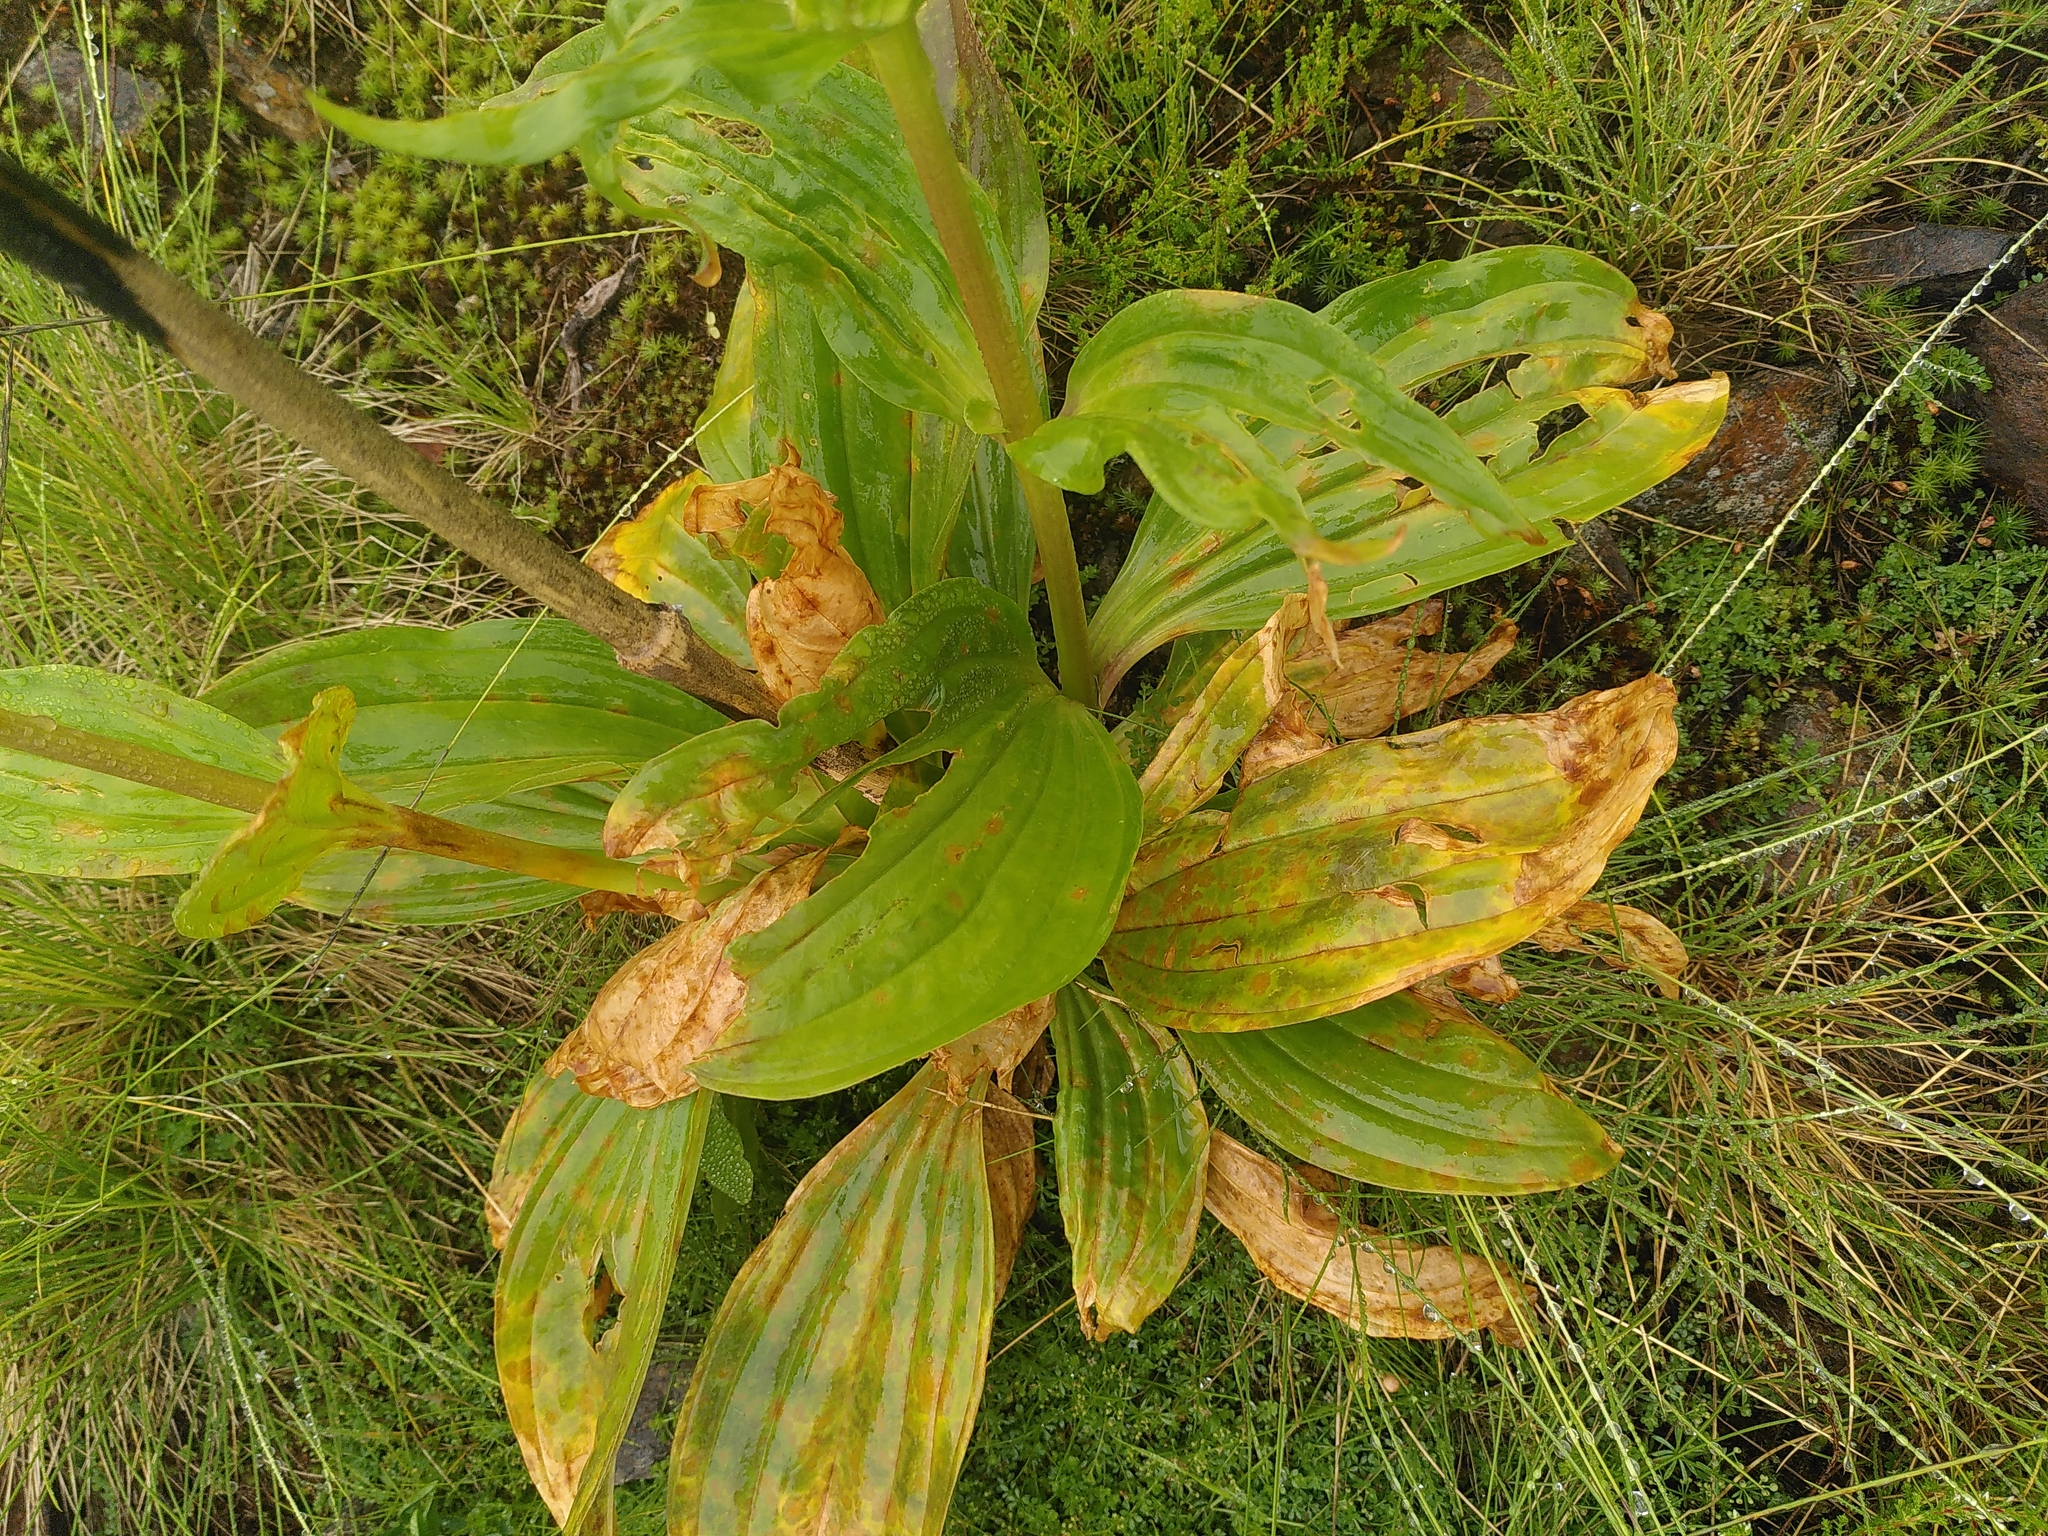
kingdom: Plantae
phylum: Tracheophyta
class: Magnoliopsida
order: Gentianales
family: Gentianaceae
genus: Gentiana
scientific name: Gentiana burseri
